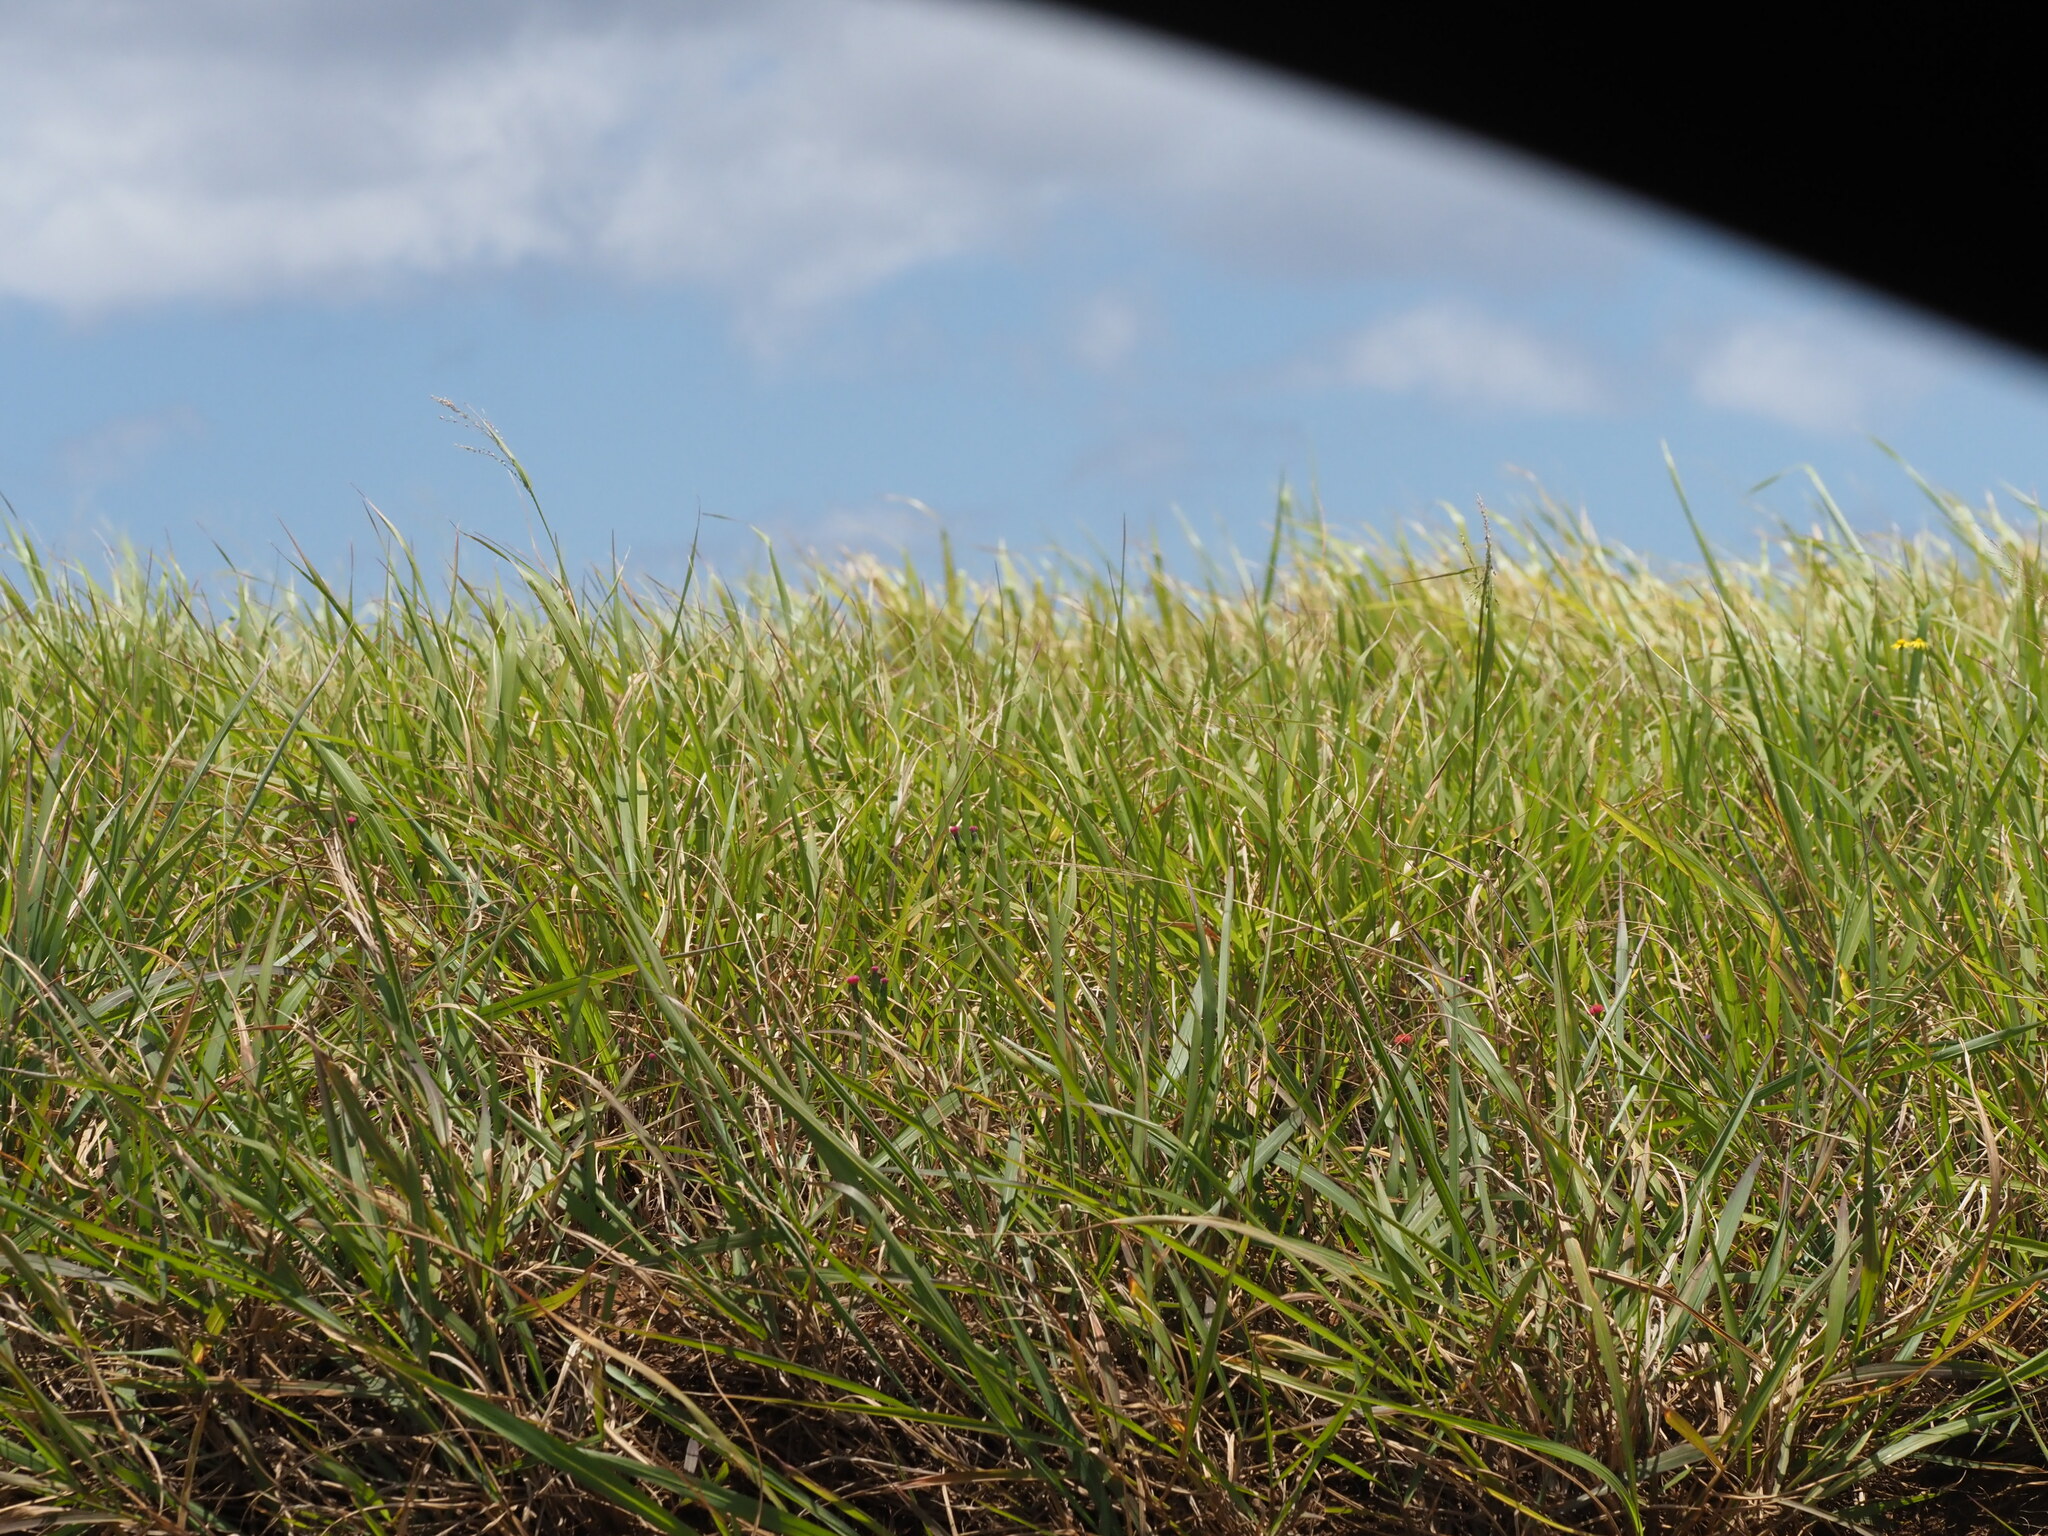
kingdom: Plantae
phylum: Tracheophyta
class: Liliopsida
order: Poales
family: Poaceae
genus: Megathyrsus
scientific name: Megathyrsus maximus
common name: Guineagrass
